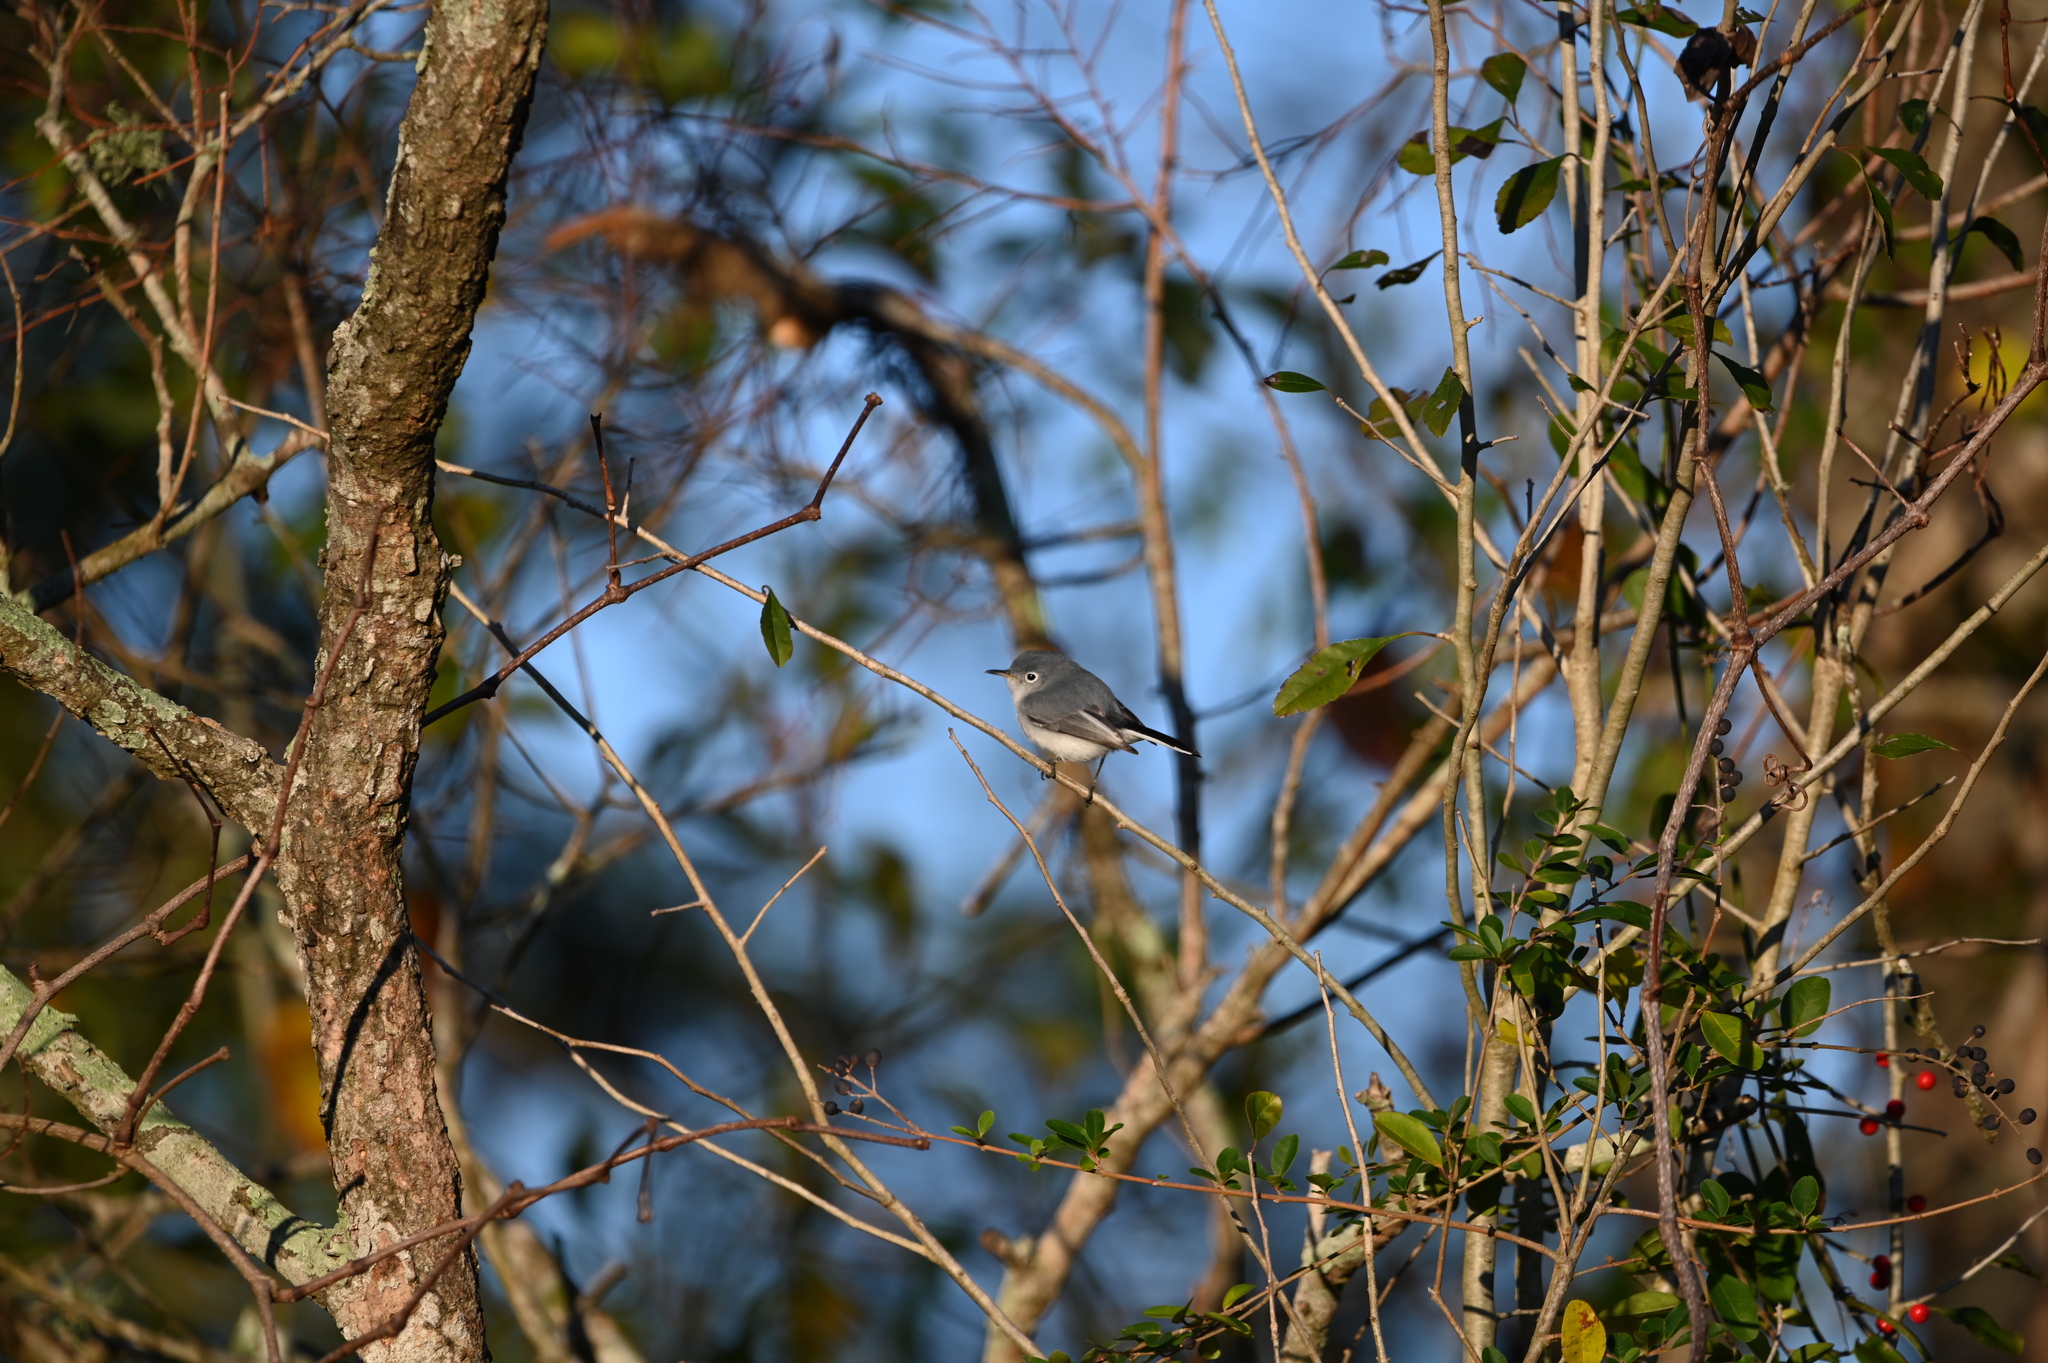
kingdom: Animalia
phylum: Chordata
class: Aves
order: Passeriformes
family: Polioptilidae
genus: Polioptila
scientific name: Polioptila caerulea
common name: Blue-gray gnatcatcher
